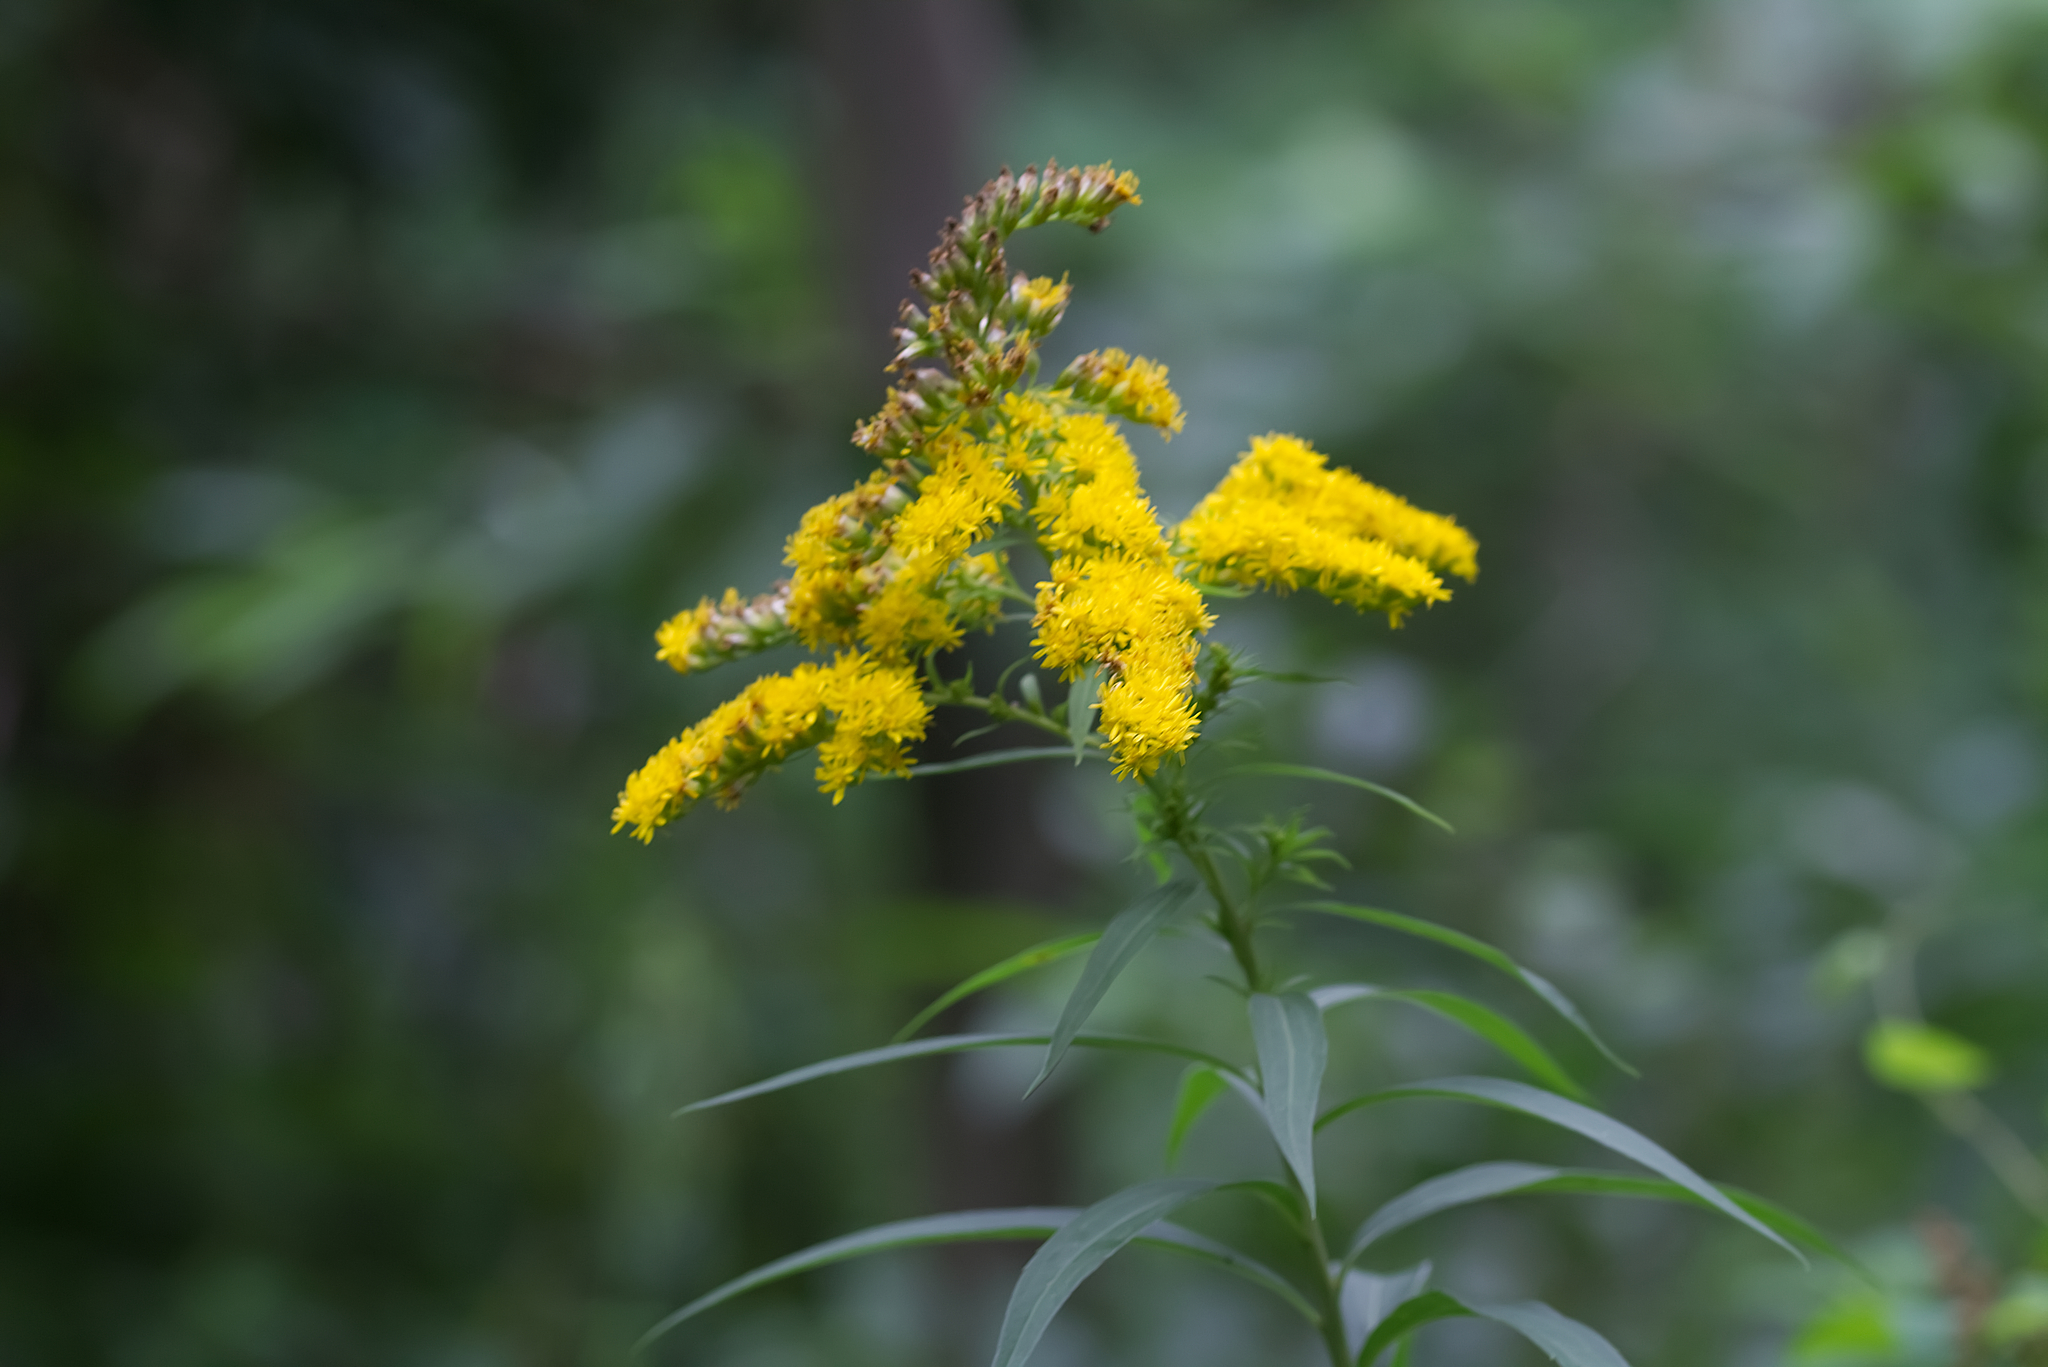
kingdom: Plantae
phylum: Tracheophyta
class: Magnoliopsida
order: Asterales
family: Asteraceae
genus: Solidago
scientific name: Solidago gigantea
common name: Giant goldenrod
